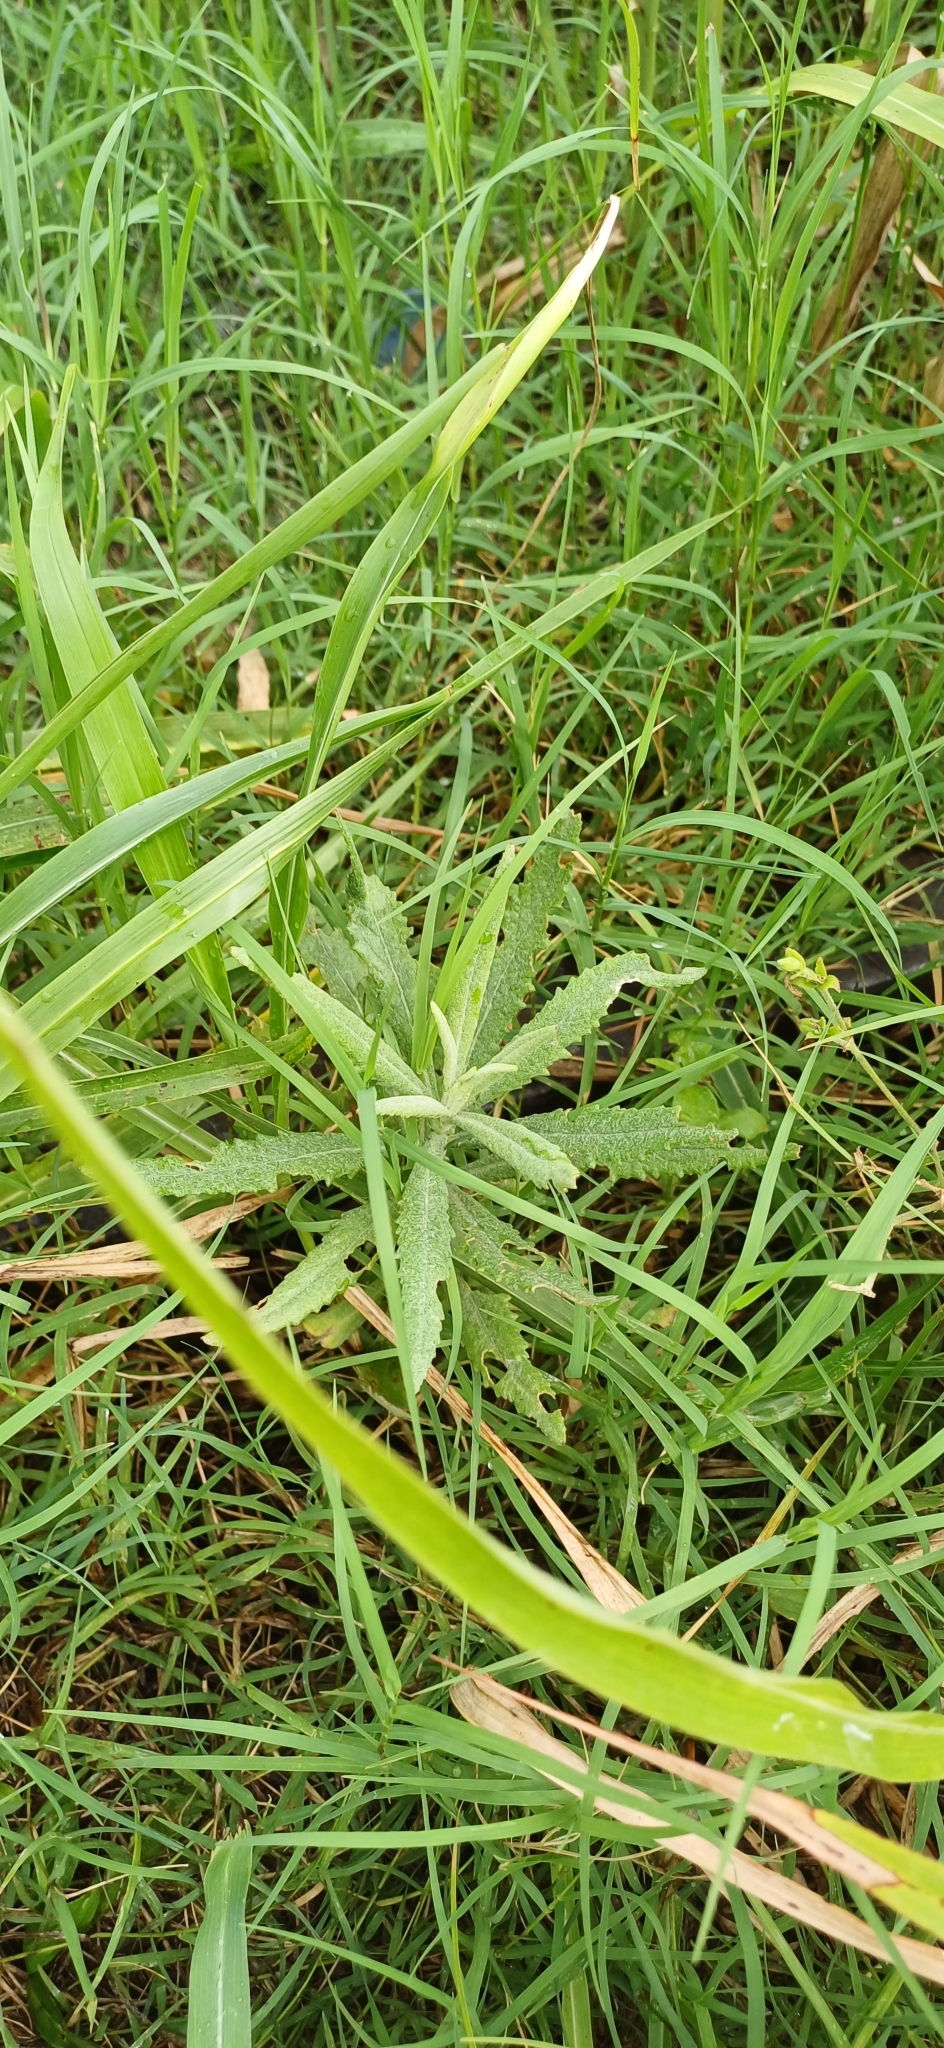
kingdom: Plantae
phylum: Tracheophyta
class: Magnoliopsida
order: Asterales
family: Asteraceae
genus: Senecio
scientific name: Senecio pterophorus
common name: Shoddy ragwort
